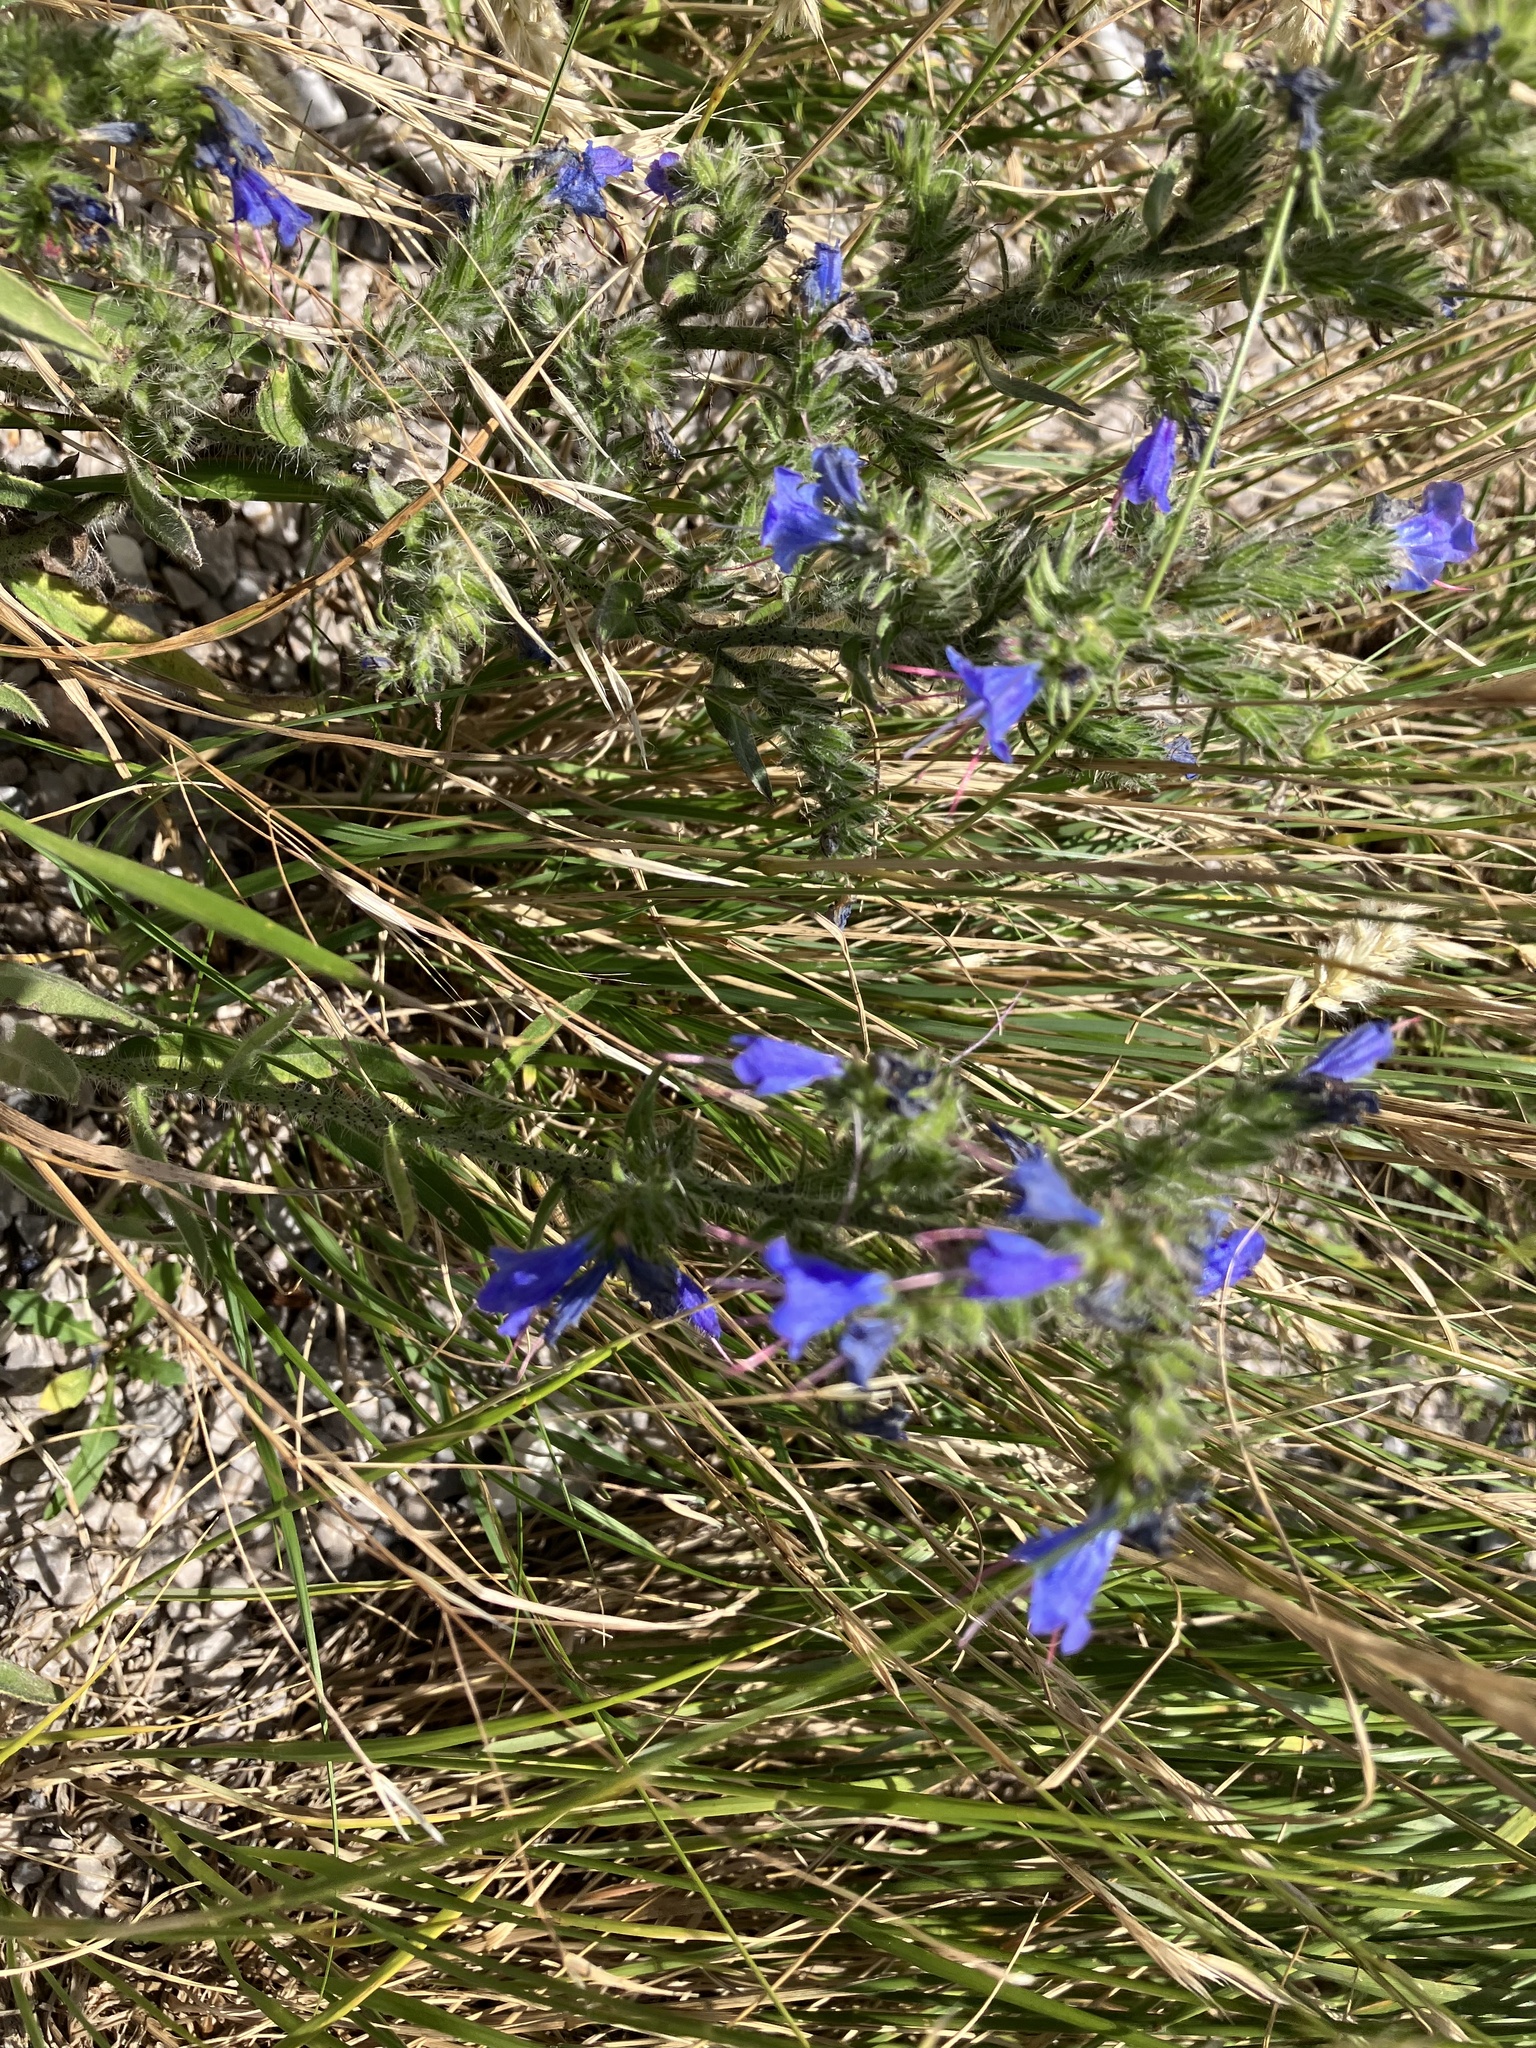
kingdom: Plantae
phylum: Tracheophyta
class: Magnoliopsida
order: Boraginales
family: Boraginaceae
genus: Echium
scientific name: Echium vulgare
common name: Common viper's bugloss
